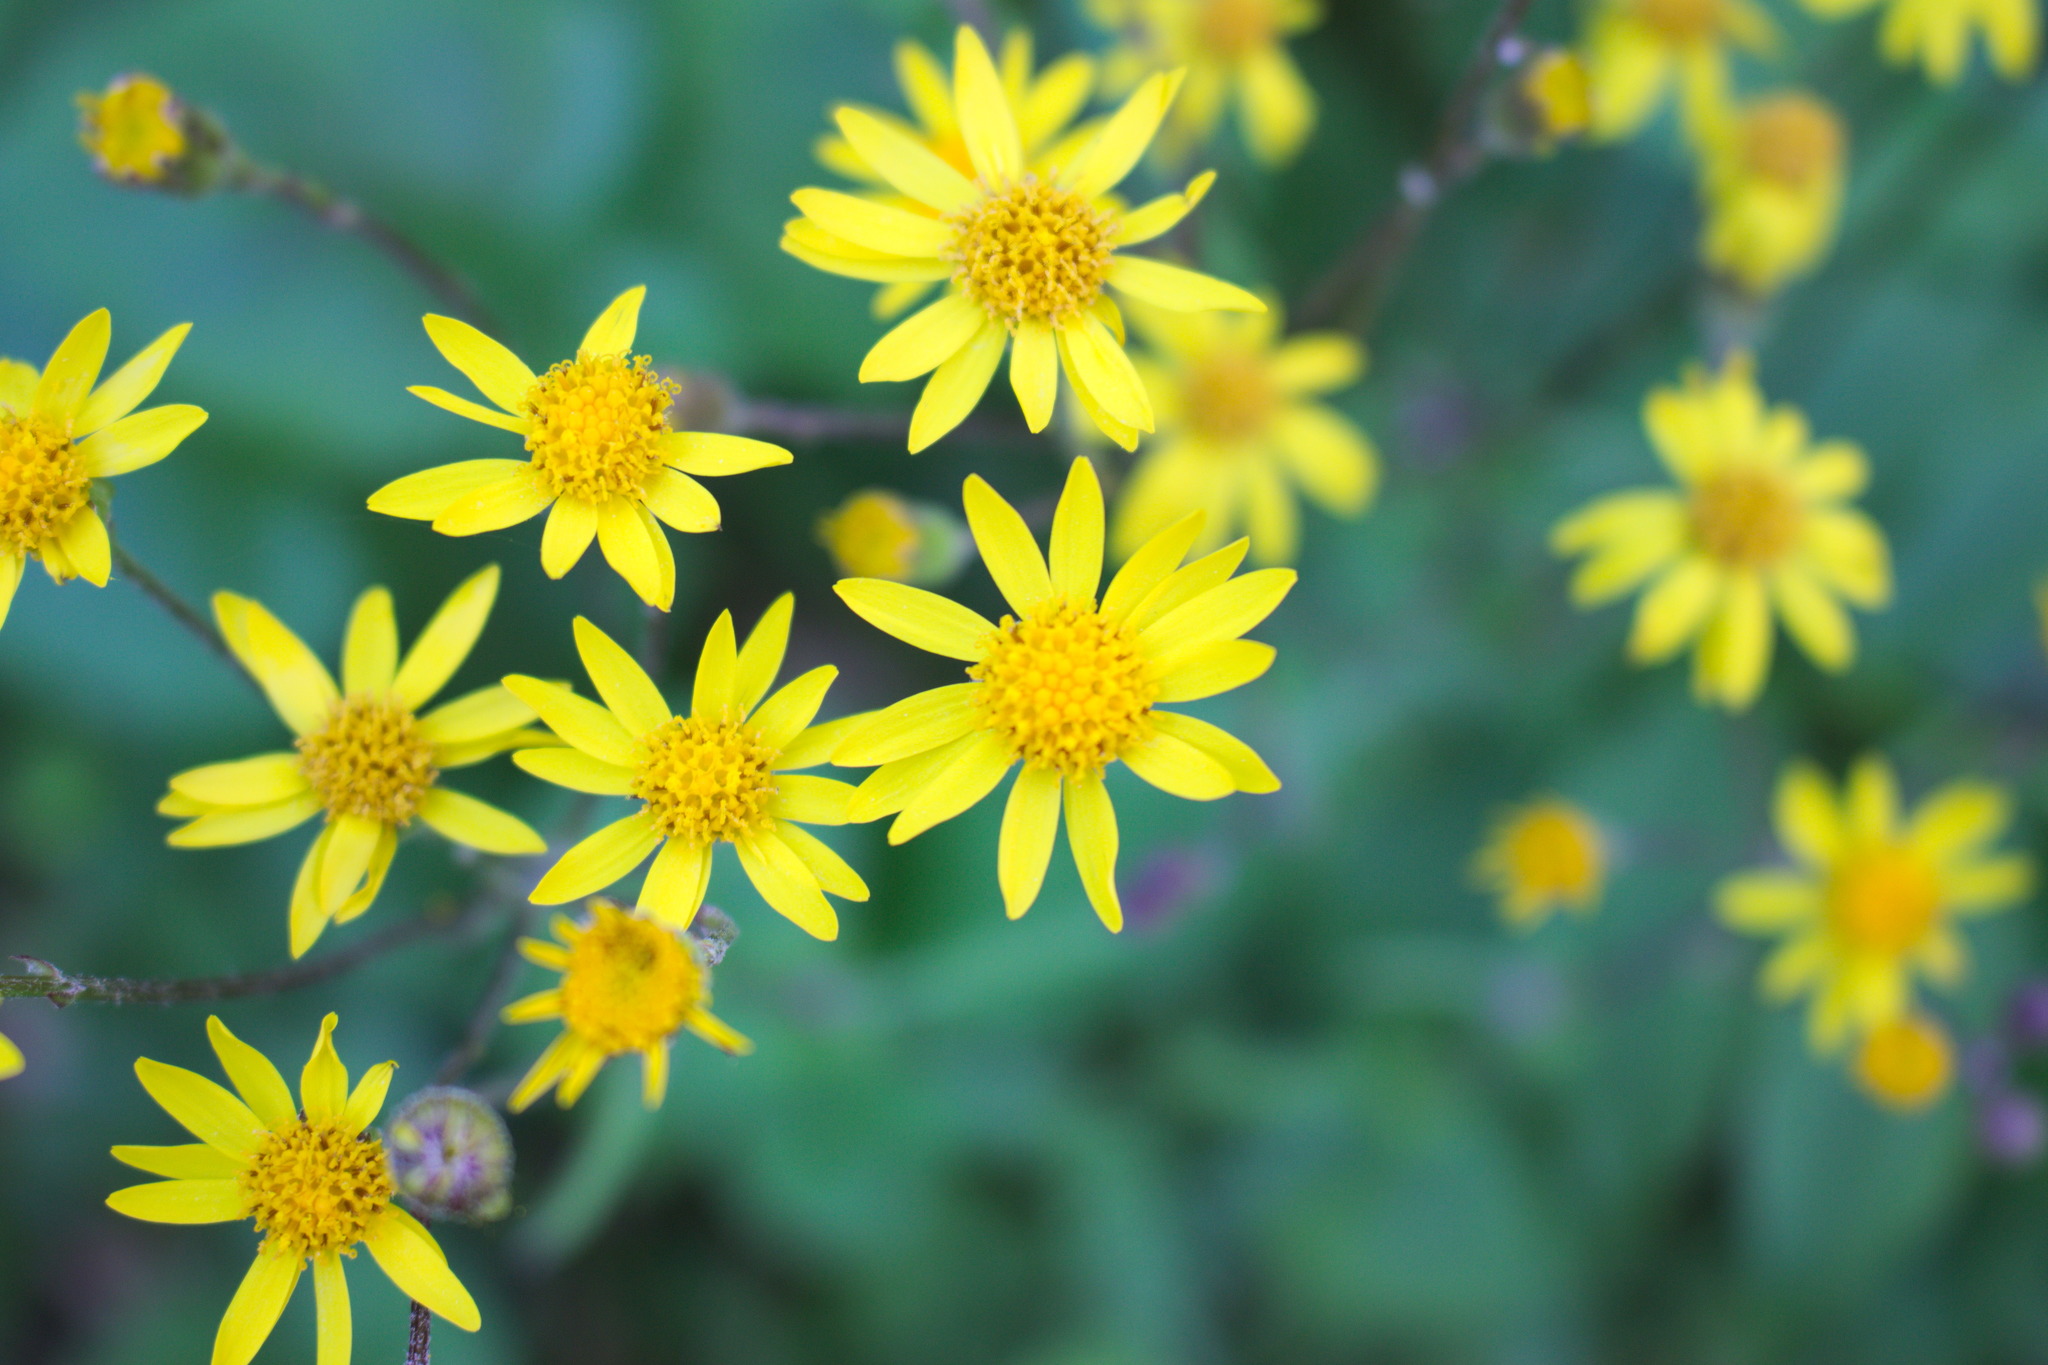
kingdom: Plantae
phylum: Tracheophyta
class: Magnoliopsida
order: Asterales
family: Asteraceae
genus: Packera
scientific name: Packera aurea
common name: Golden groundsel
